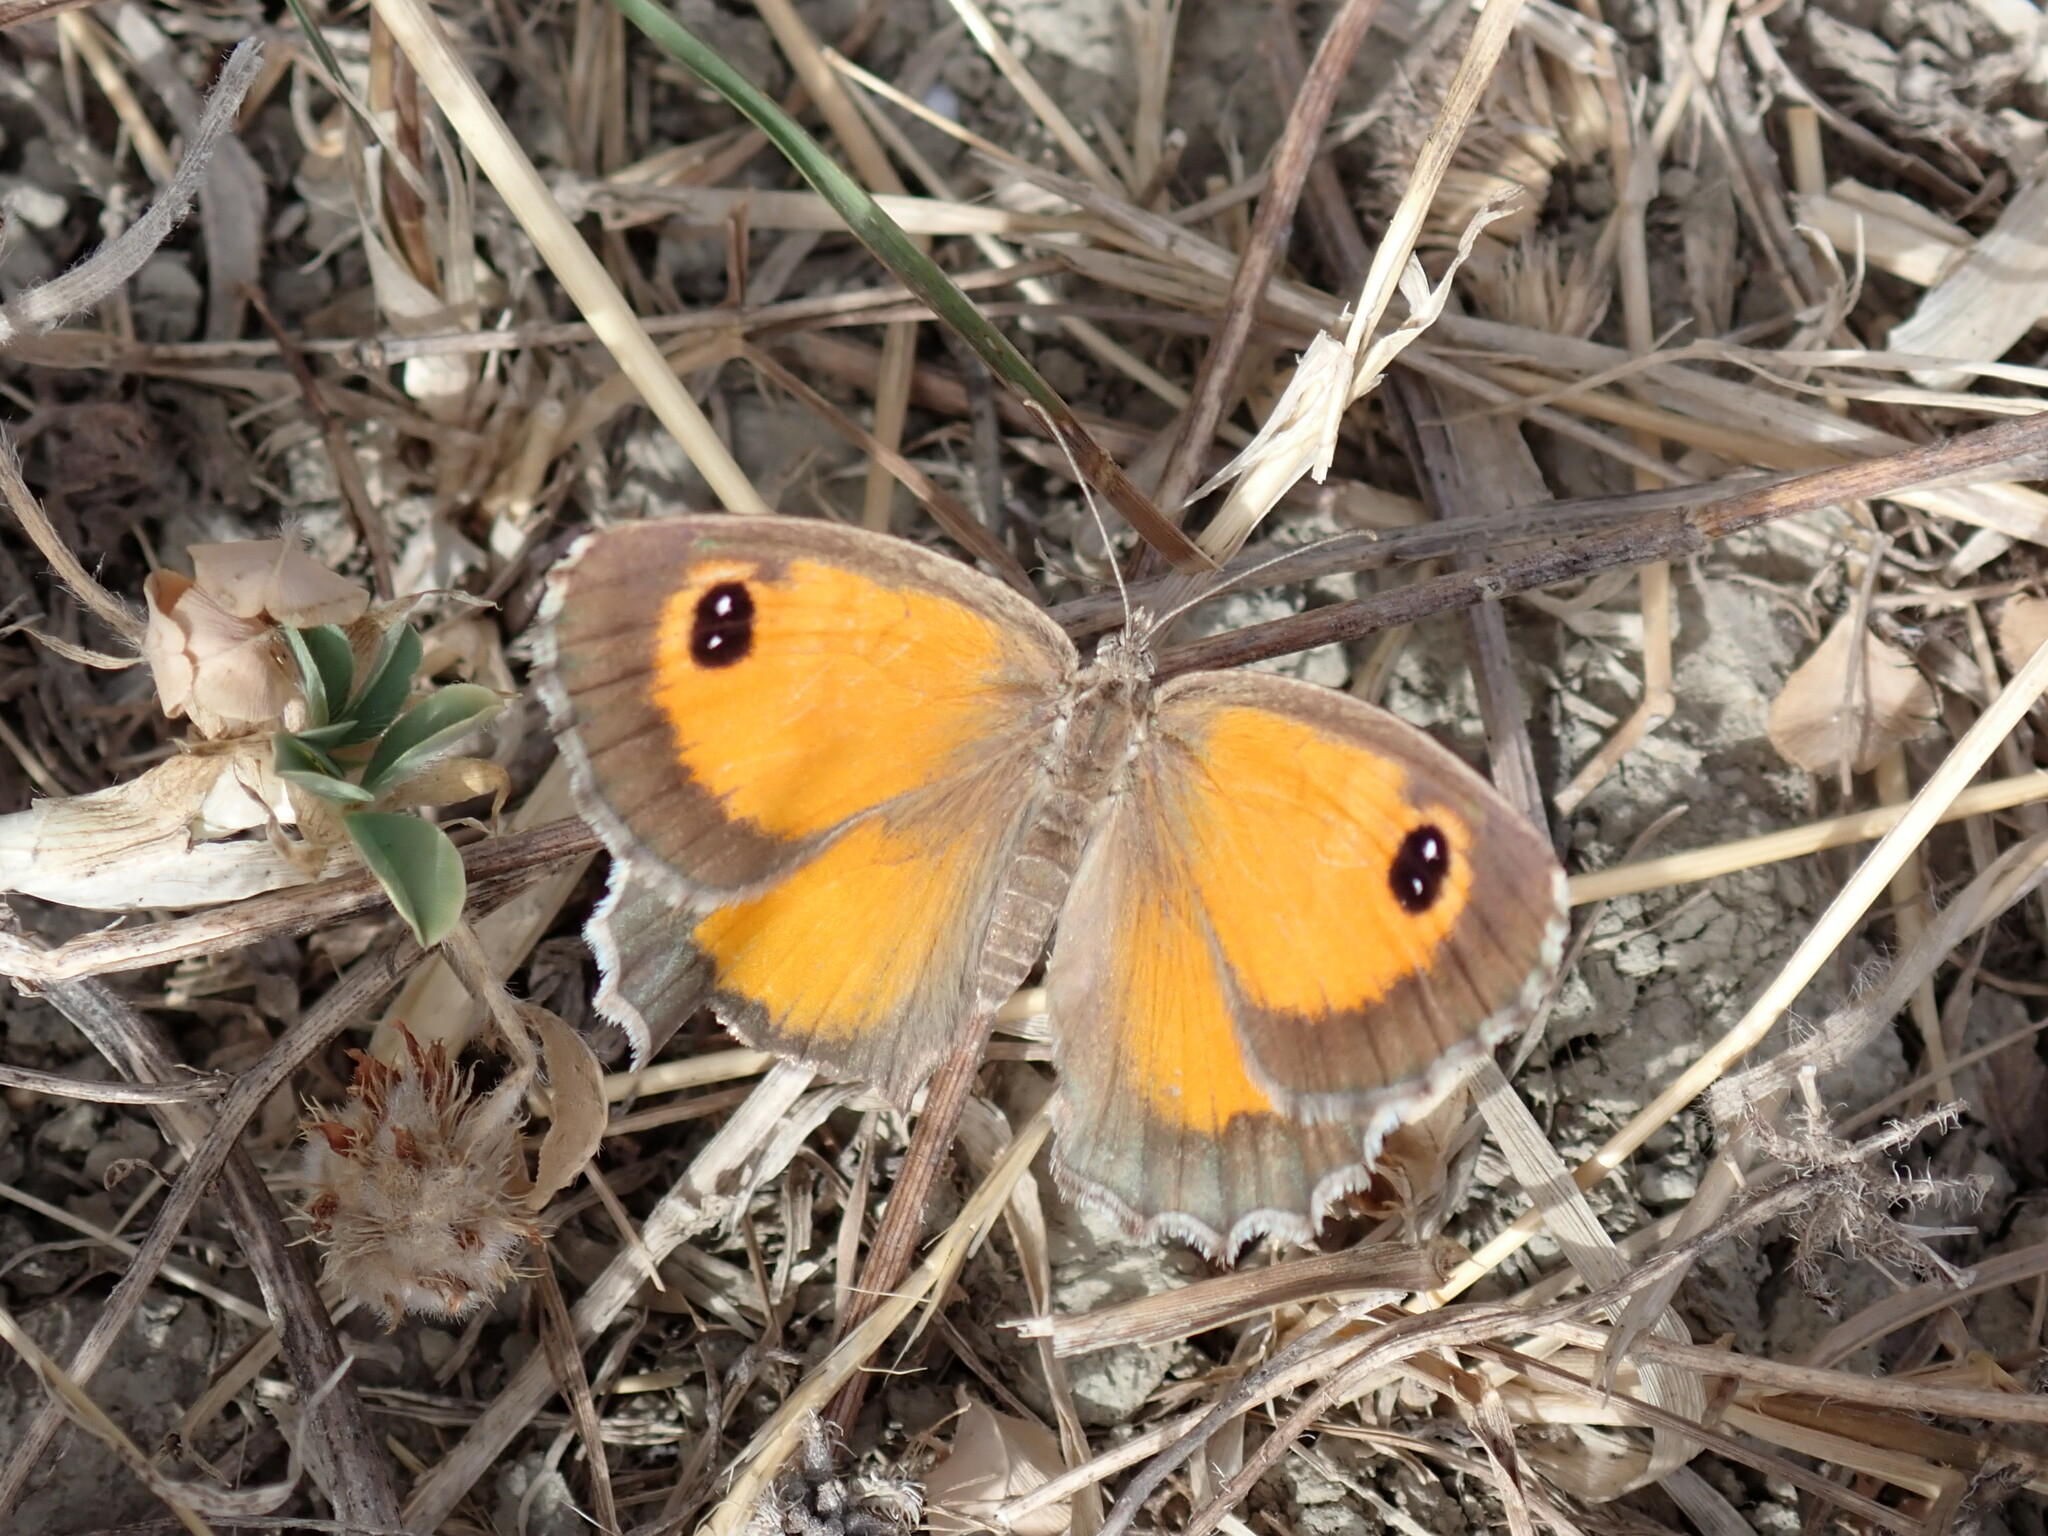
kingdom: Animalia
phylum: Arthropoda
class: Insecta
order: Lepidoptera
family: Nymphalidae
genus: Pyronia
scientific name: Pyronia cecilia
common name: Southern gatekeeper
